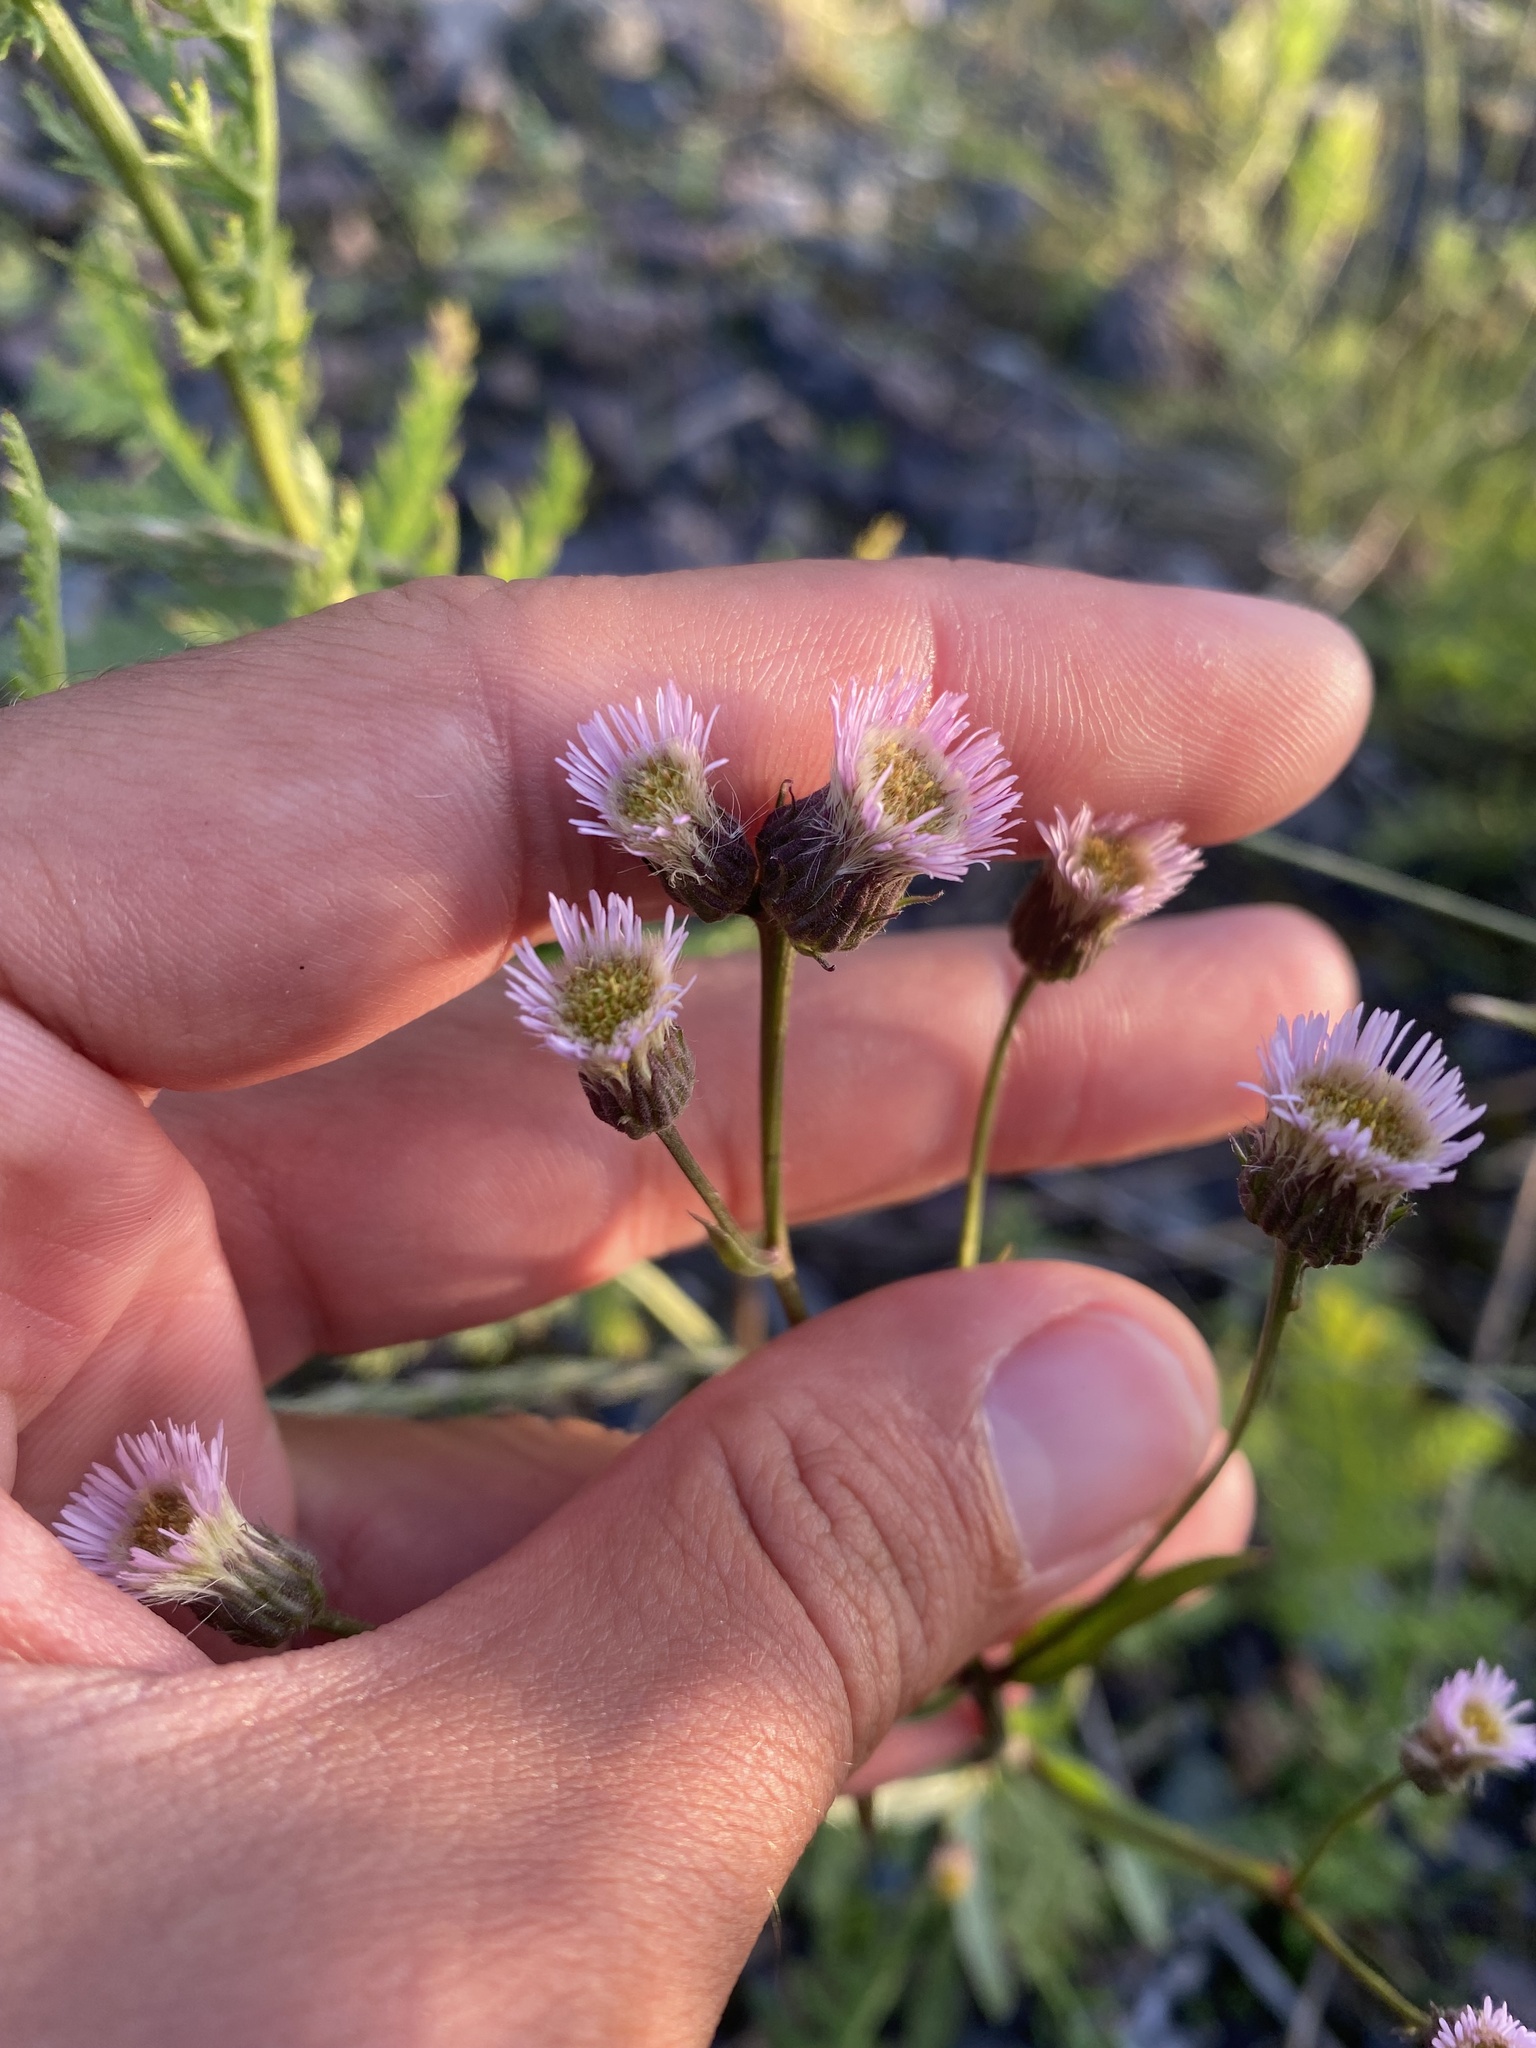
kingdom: Plantae
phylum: Tracheophyta
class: Magnoliopsida
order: Asterales
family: Asteraceae
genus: Erigeron
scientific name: Erigeron acris
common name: Blue fleabane
